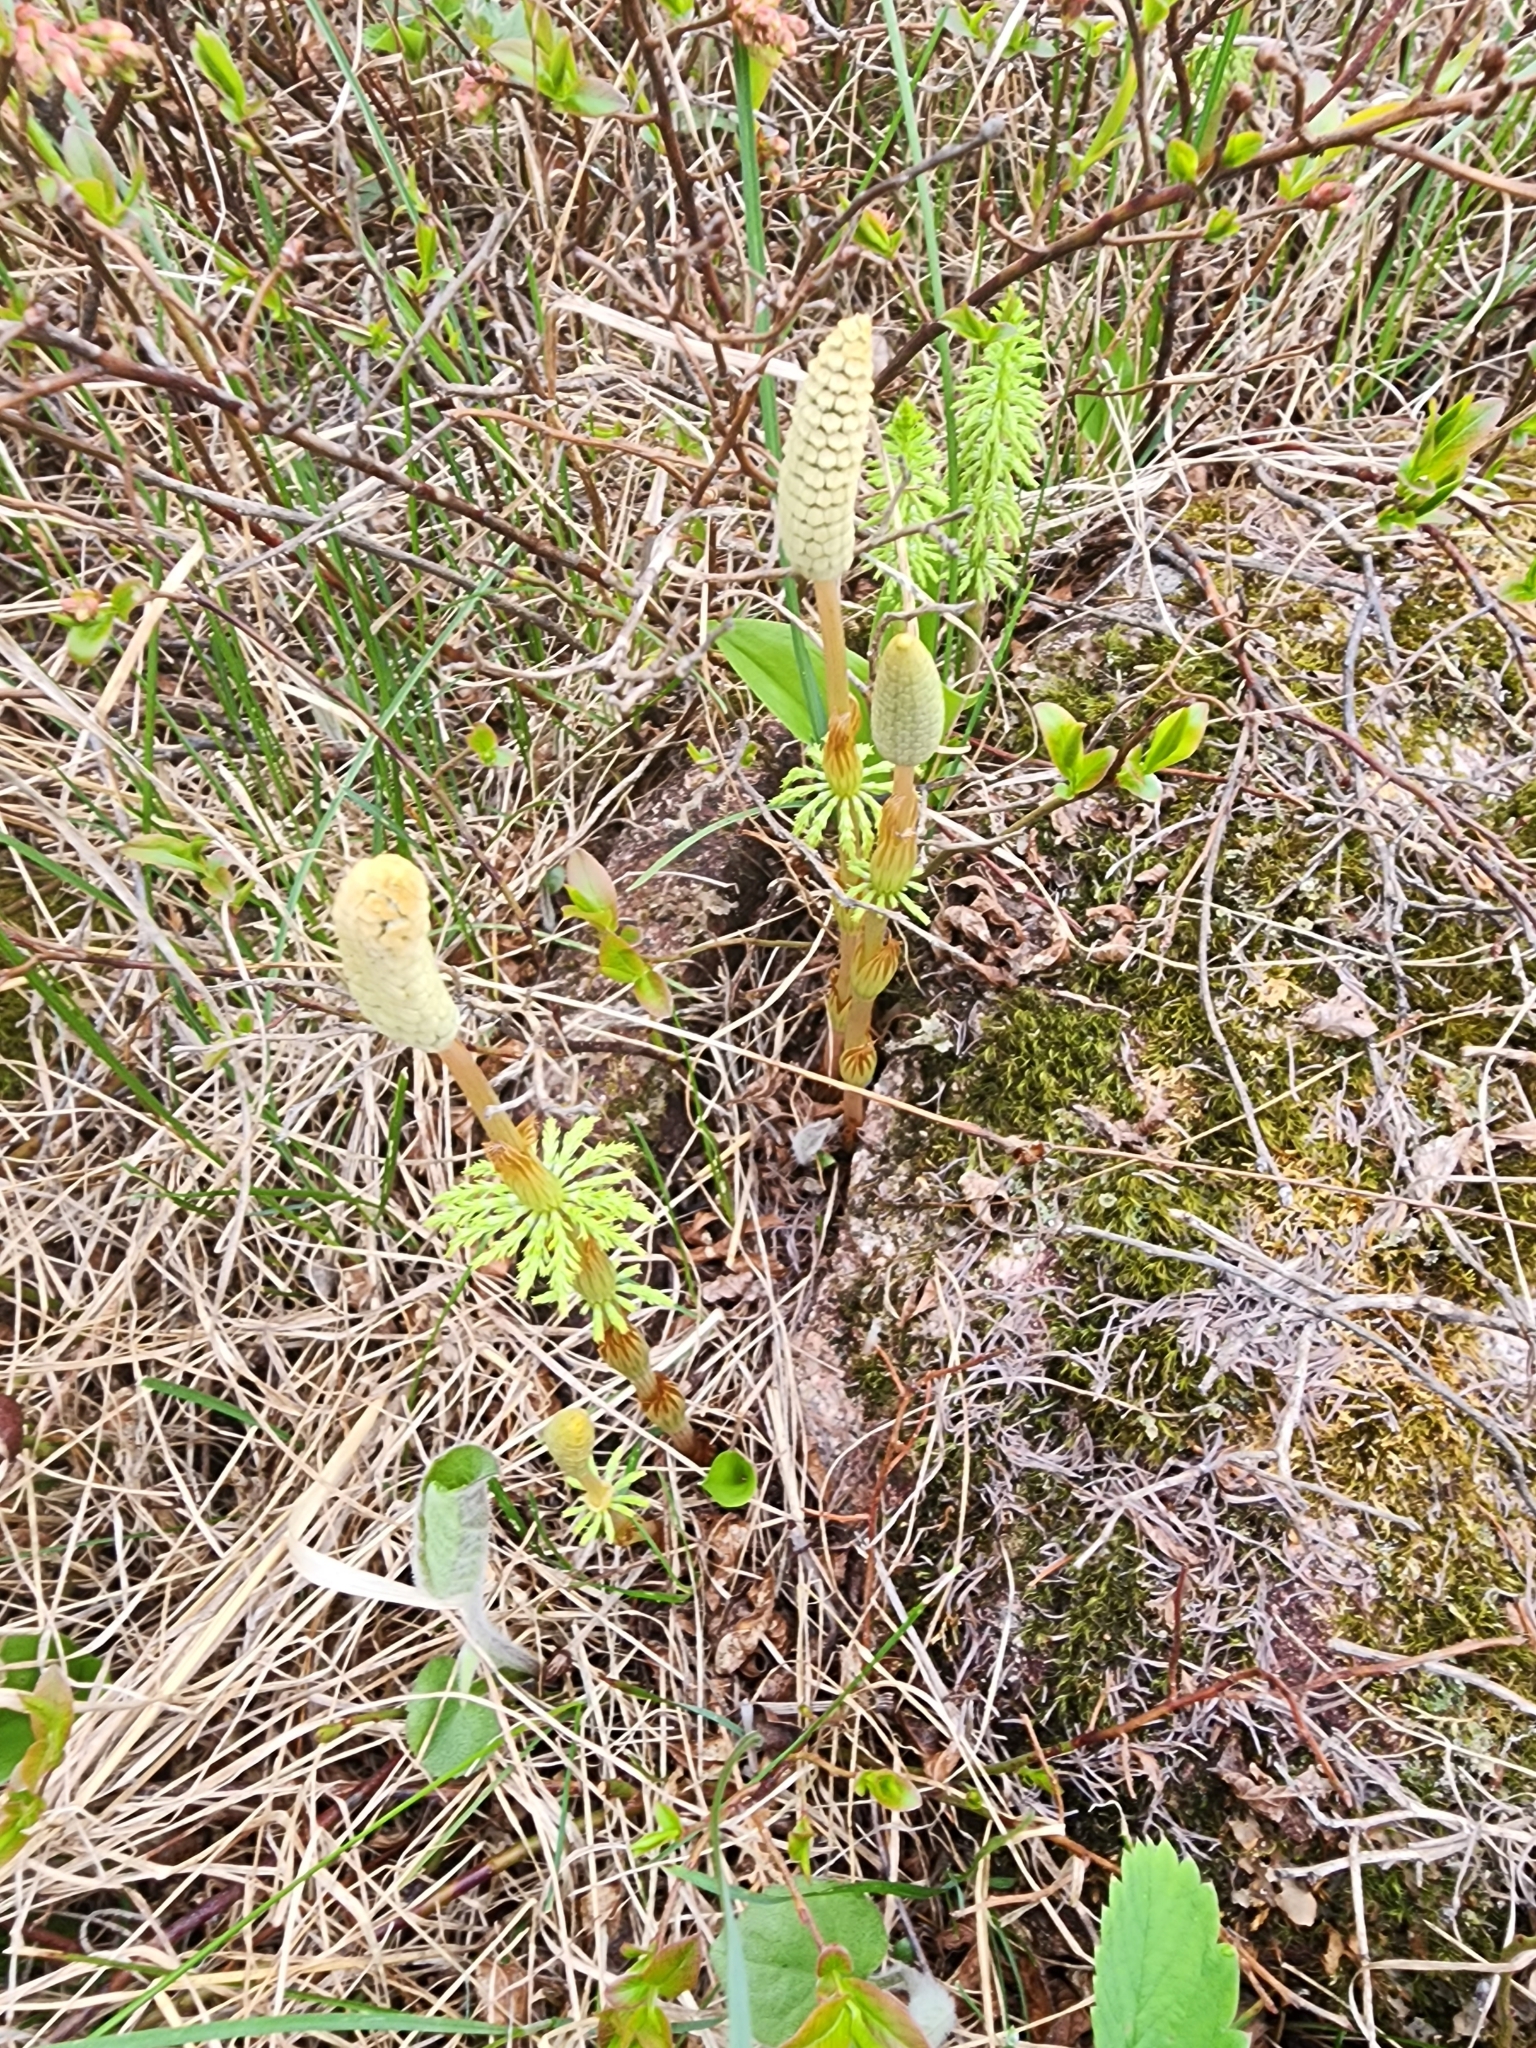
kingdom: Plantae
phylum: Tracheophyta
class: Polypodiopsida
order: Equisetales
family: Equisetaceae
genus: Equisetum
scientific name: Equisetum sylvaticum
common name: Wood horsetail
